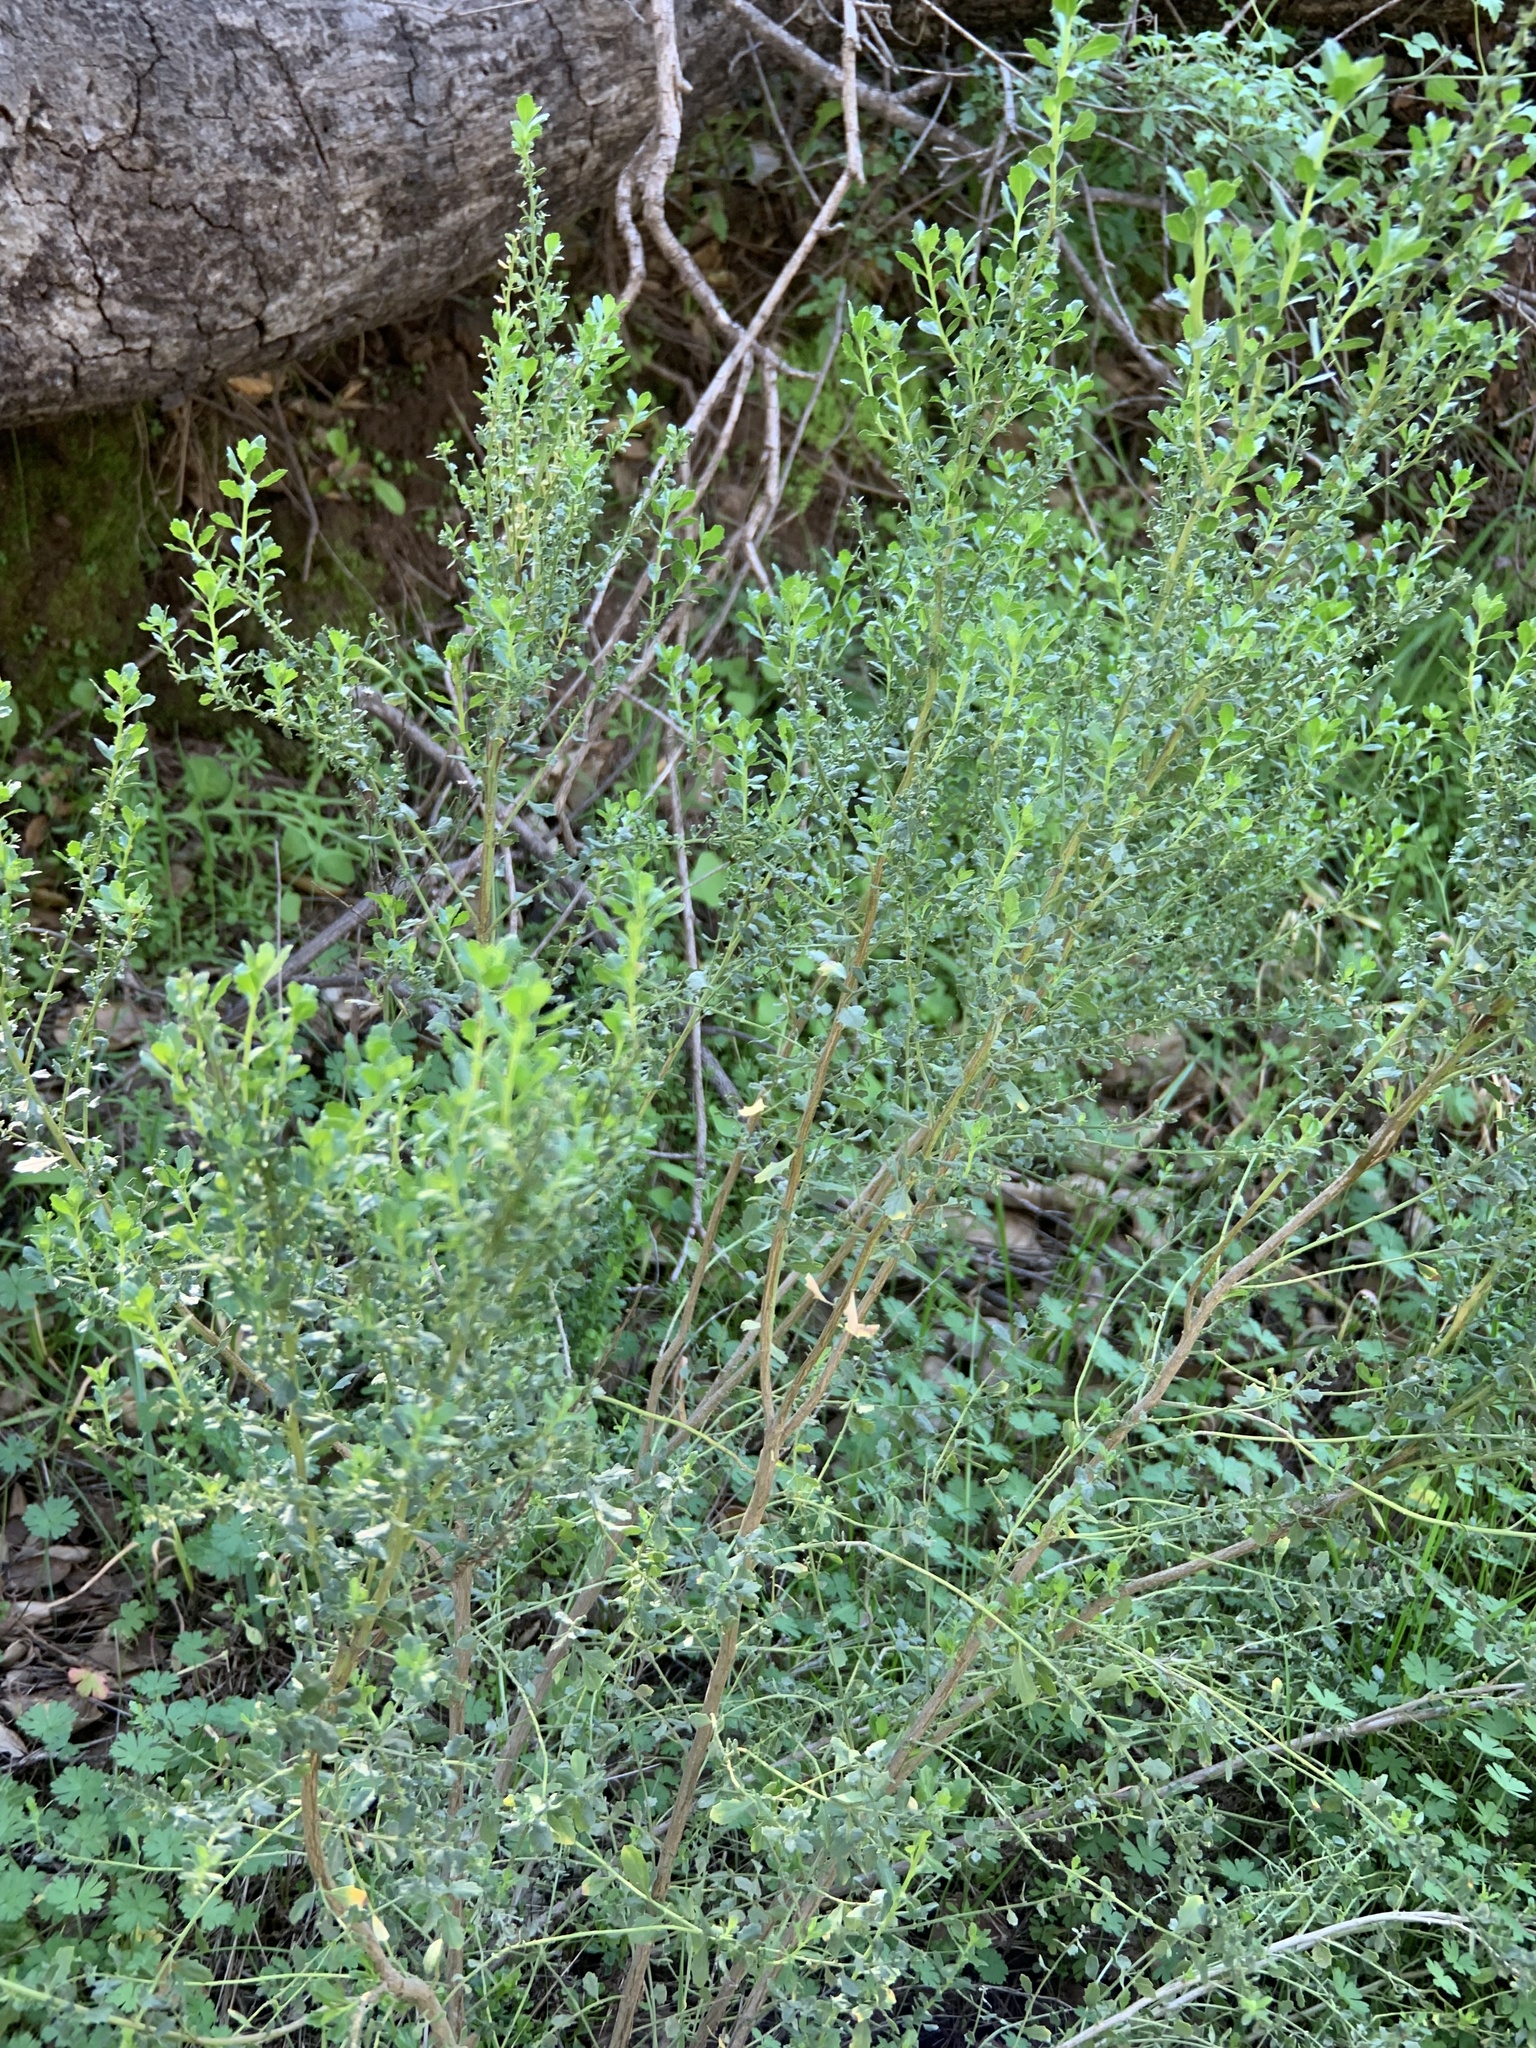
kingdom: Plantae
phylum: Tracheophyta
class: Magnoliopsida
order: Asterales
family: Asteraceae
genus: Baccharis
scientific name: Baccharis pilularis
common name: Coyotebrush
